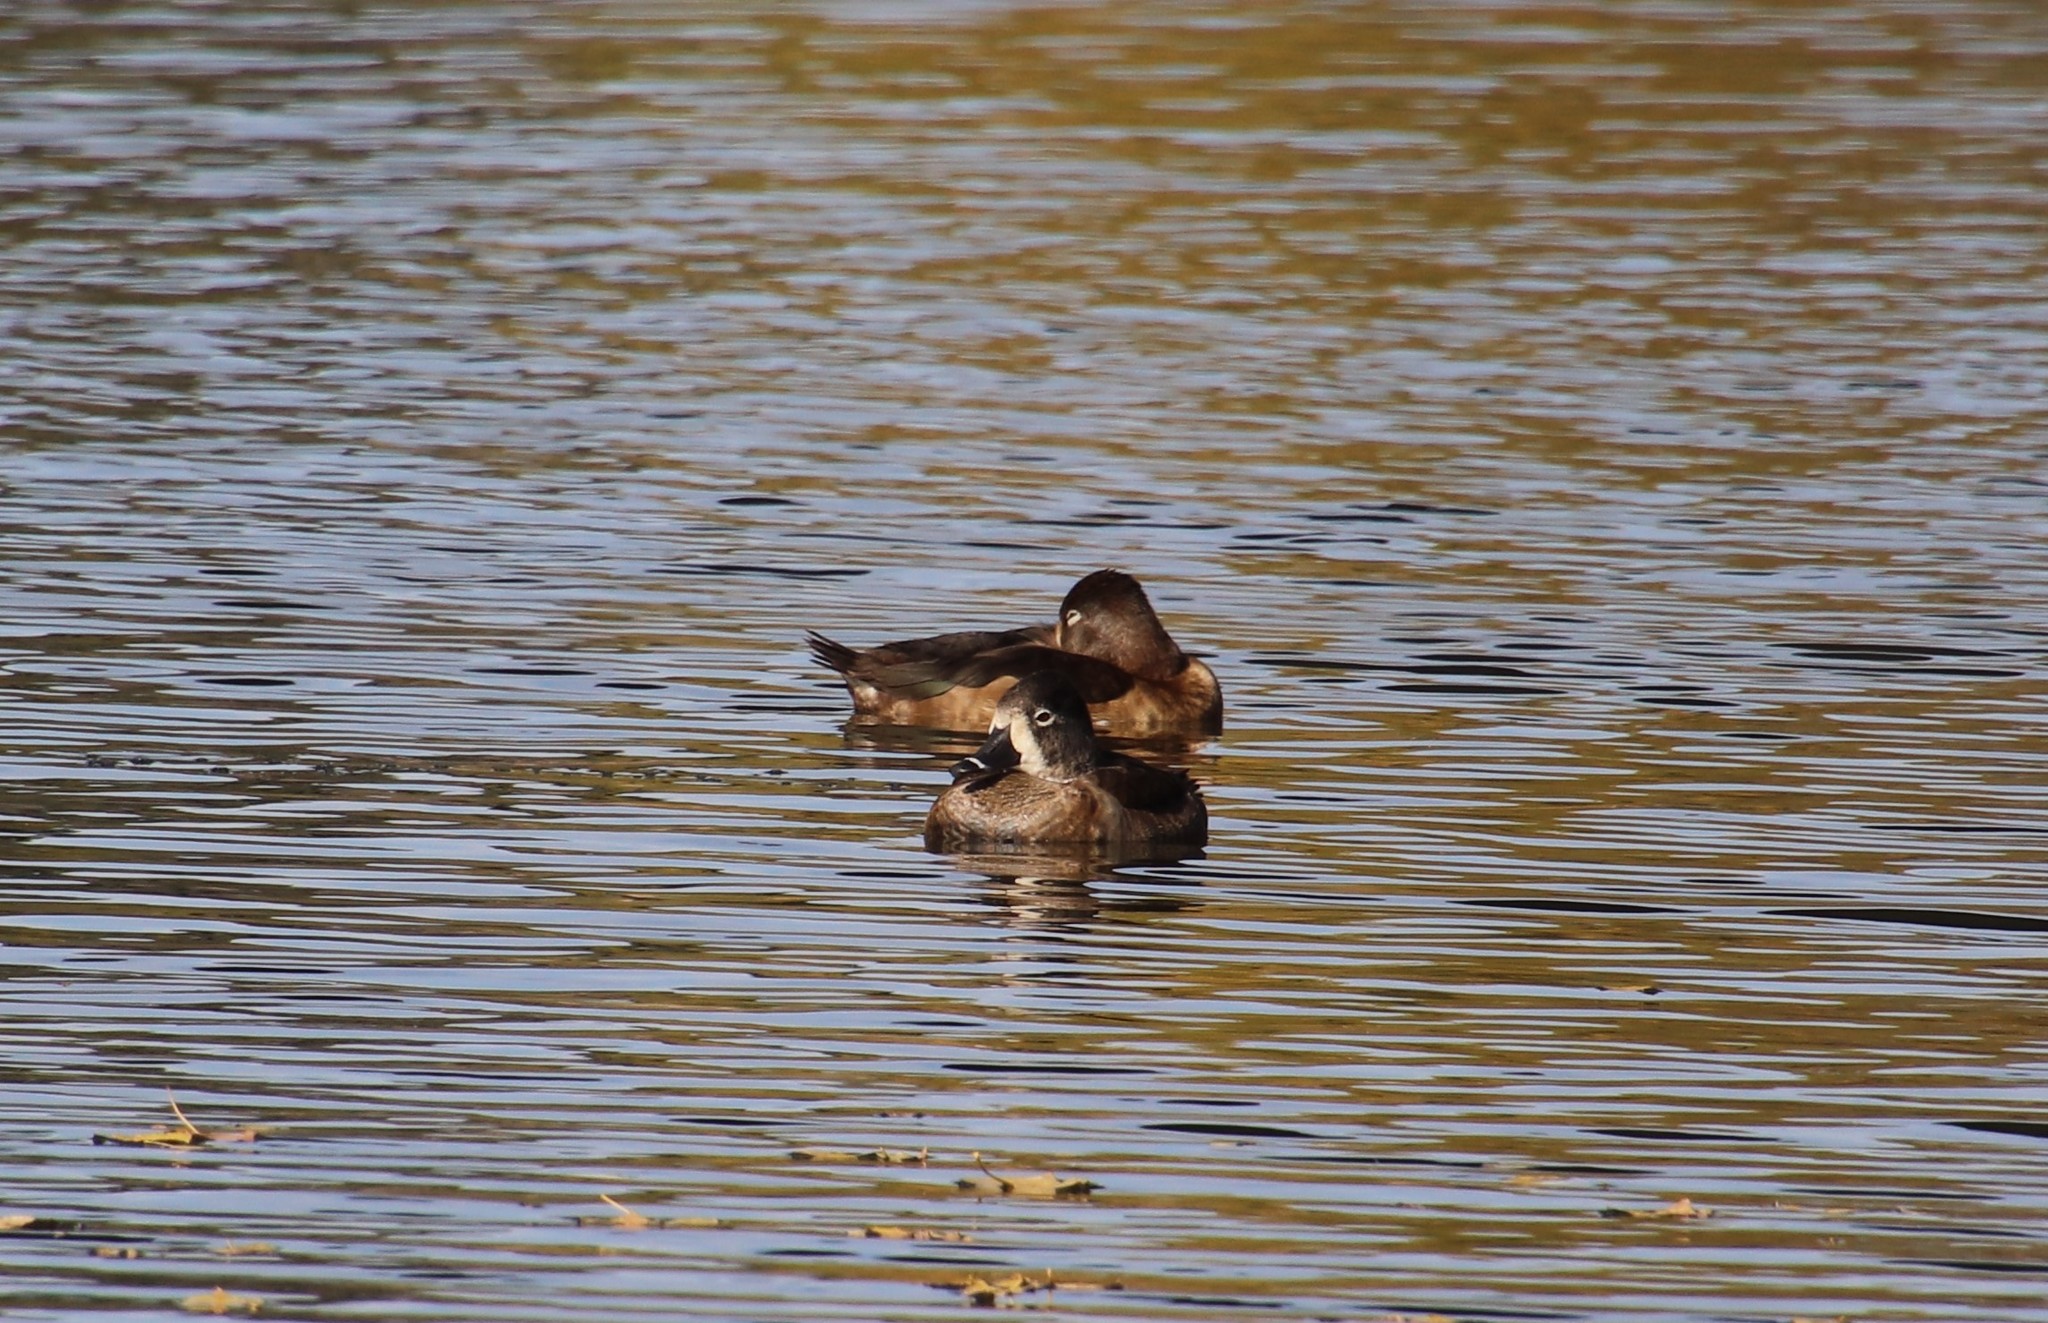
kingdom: Animalia
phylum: Chordata
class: Aves
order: Anseriformes
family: Anatidae
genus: Aythya
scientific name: Aythya collaris
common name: Ring-necked duck
